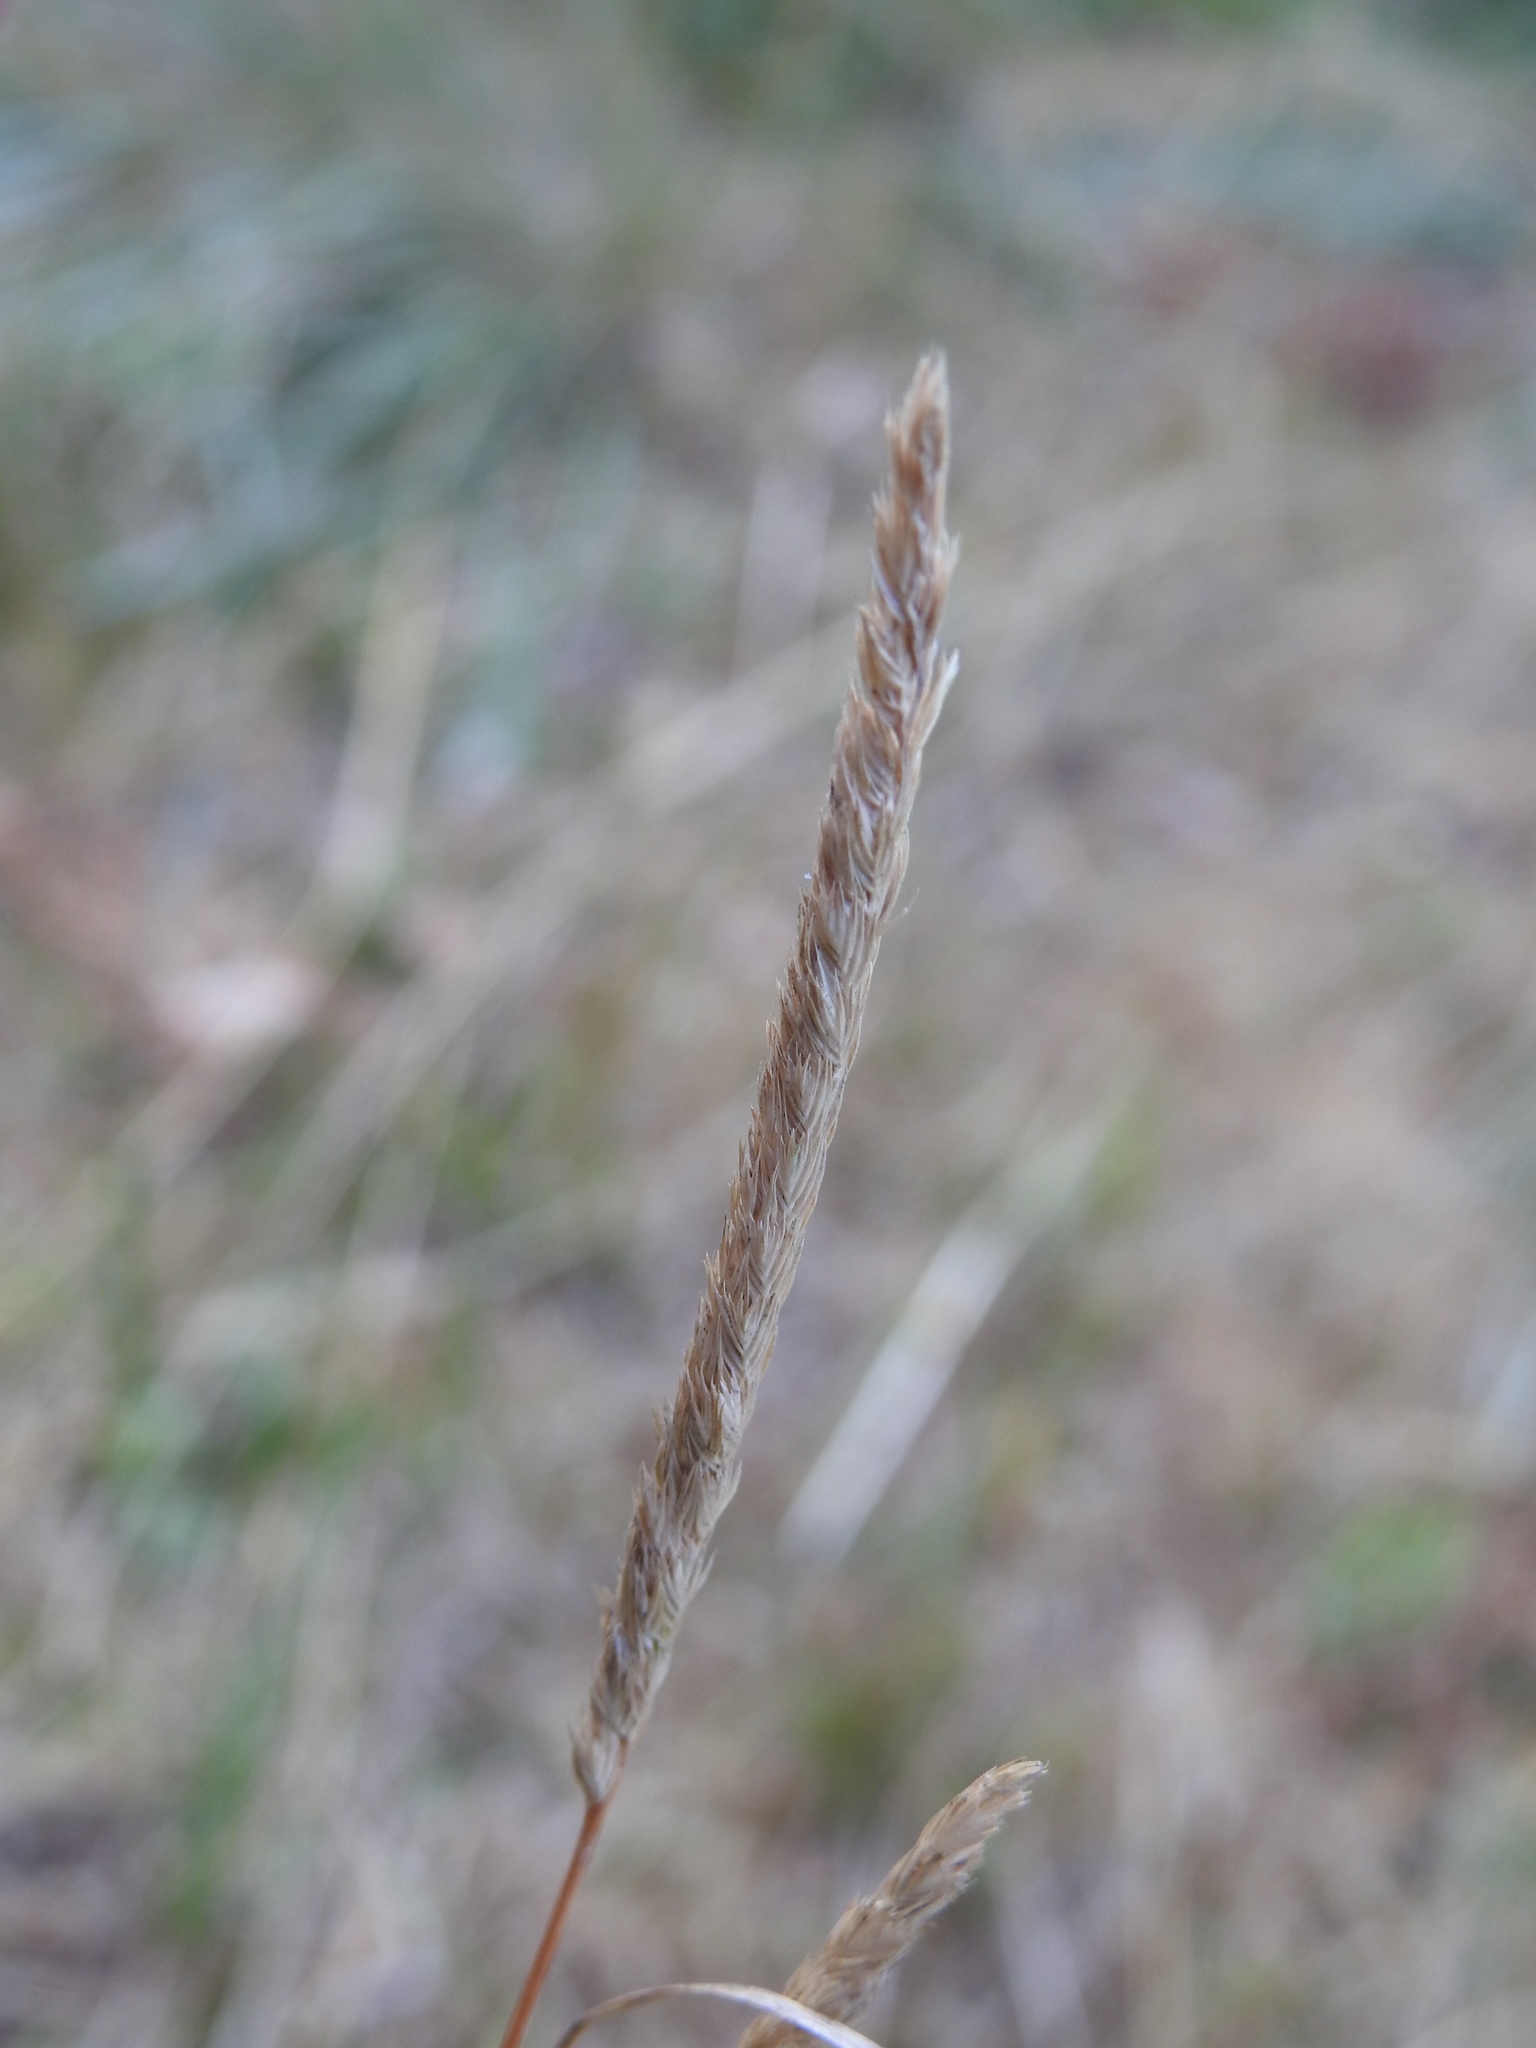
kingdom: Plantae
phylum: Tracheophyta
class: Liliopsida
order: Poales
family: Poaceae
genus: Cynosurus
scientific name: Cynosurus cristatus
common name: Crested dog's-tail
